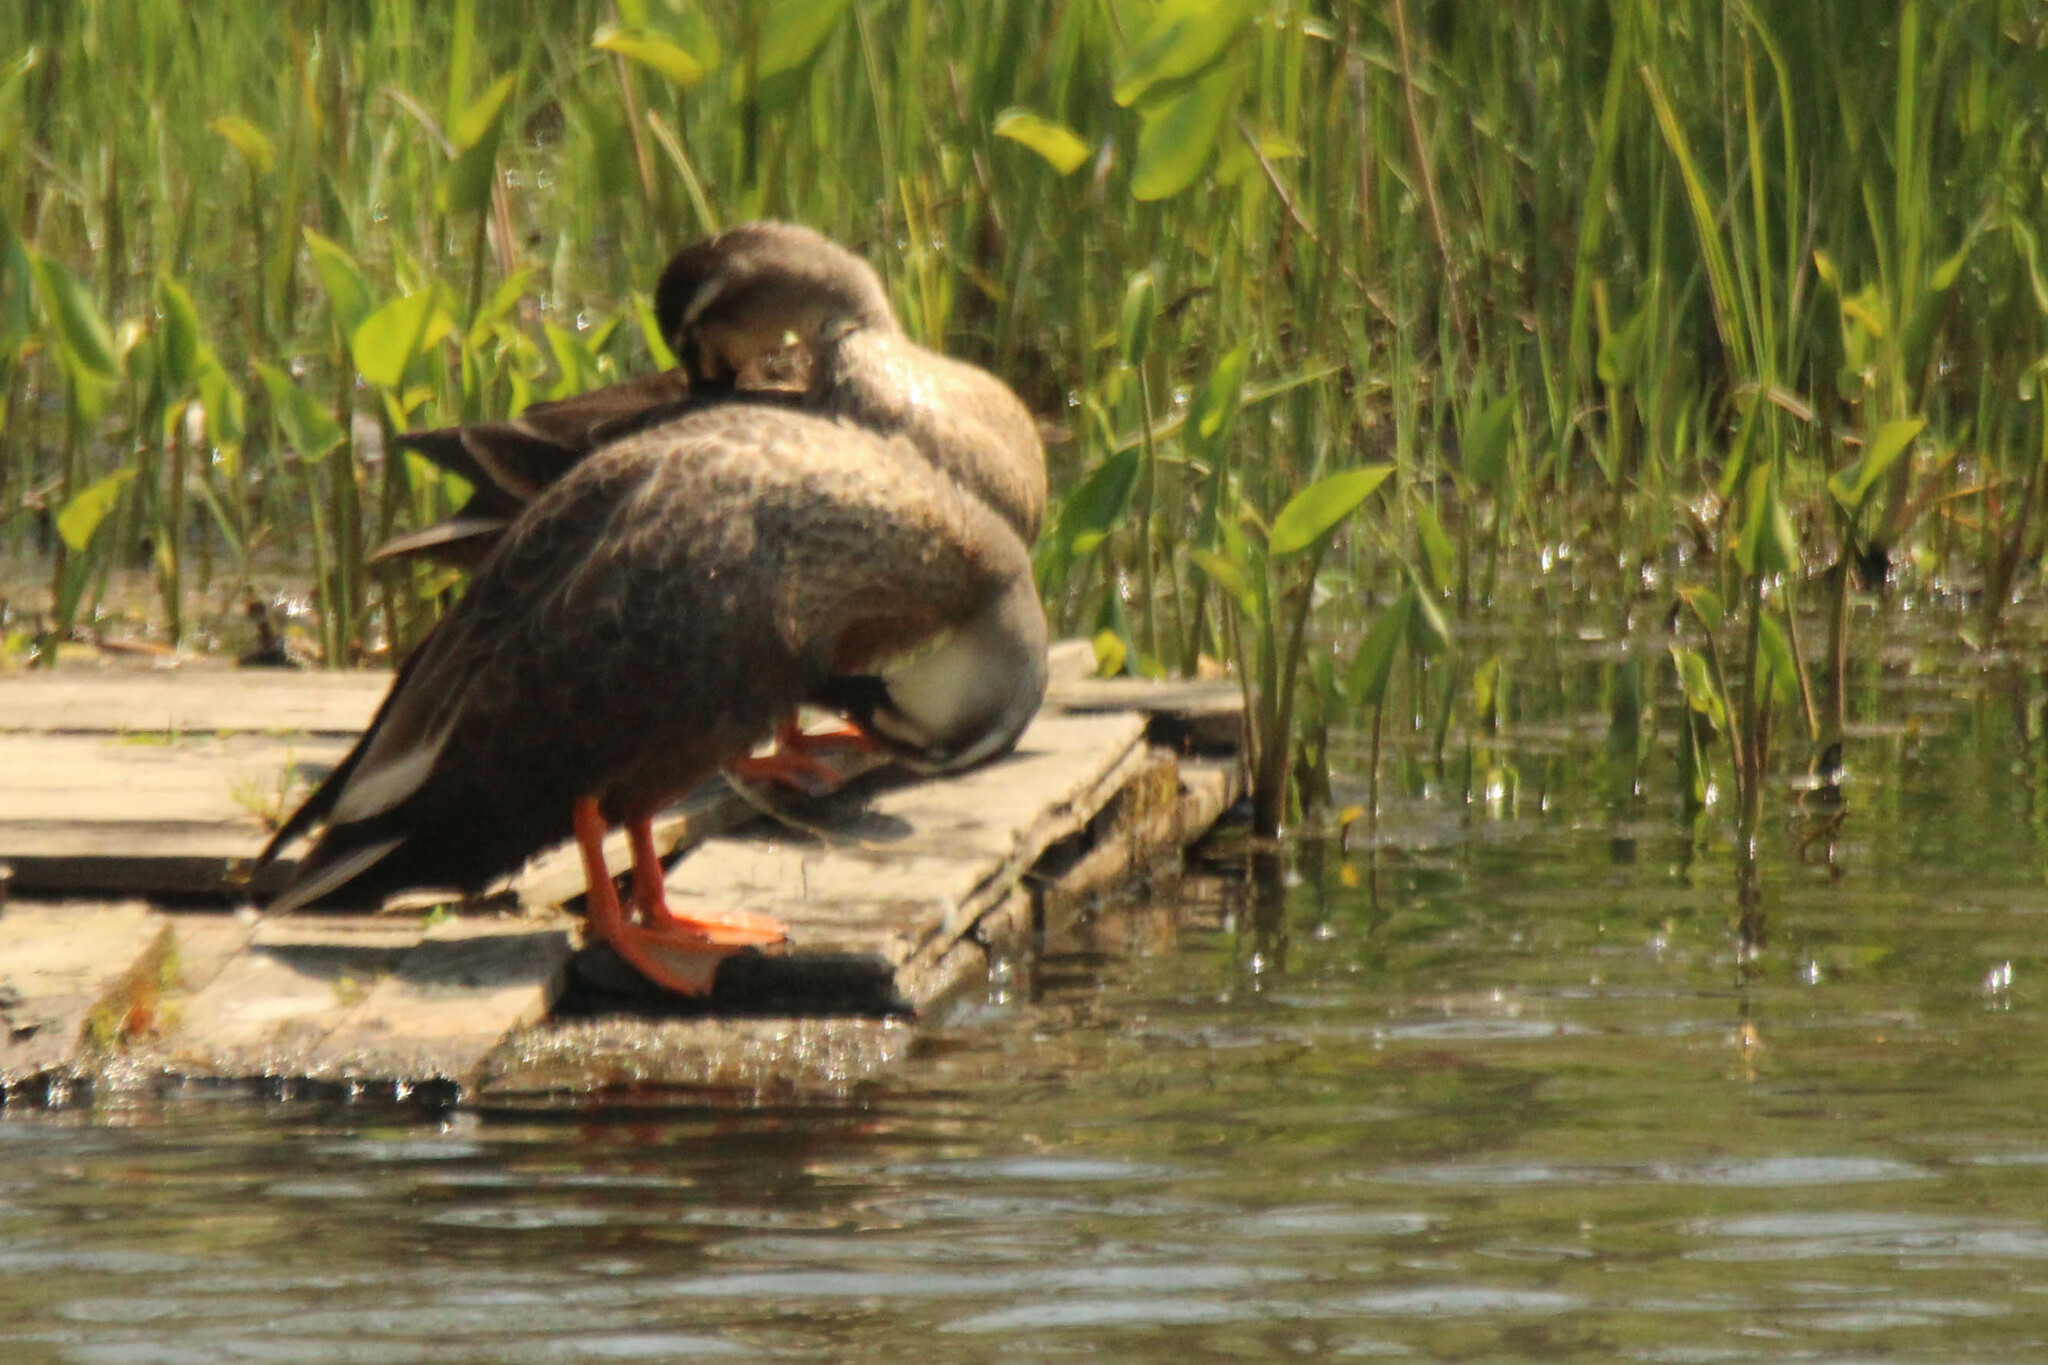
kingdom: Animalia
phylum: Chordata
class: Aves
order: Anseriformes
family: Anatidae
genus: Anas
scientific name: Anas zonorhyncha
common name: Eastern spot-billed duck
